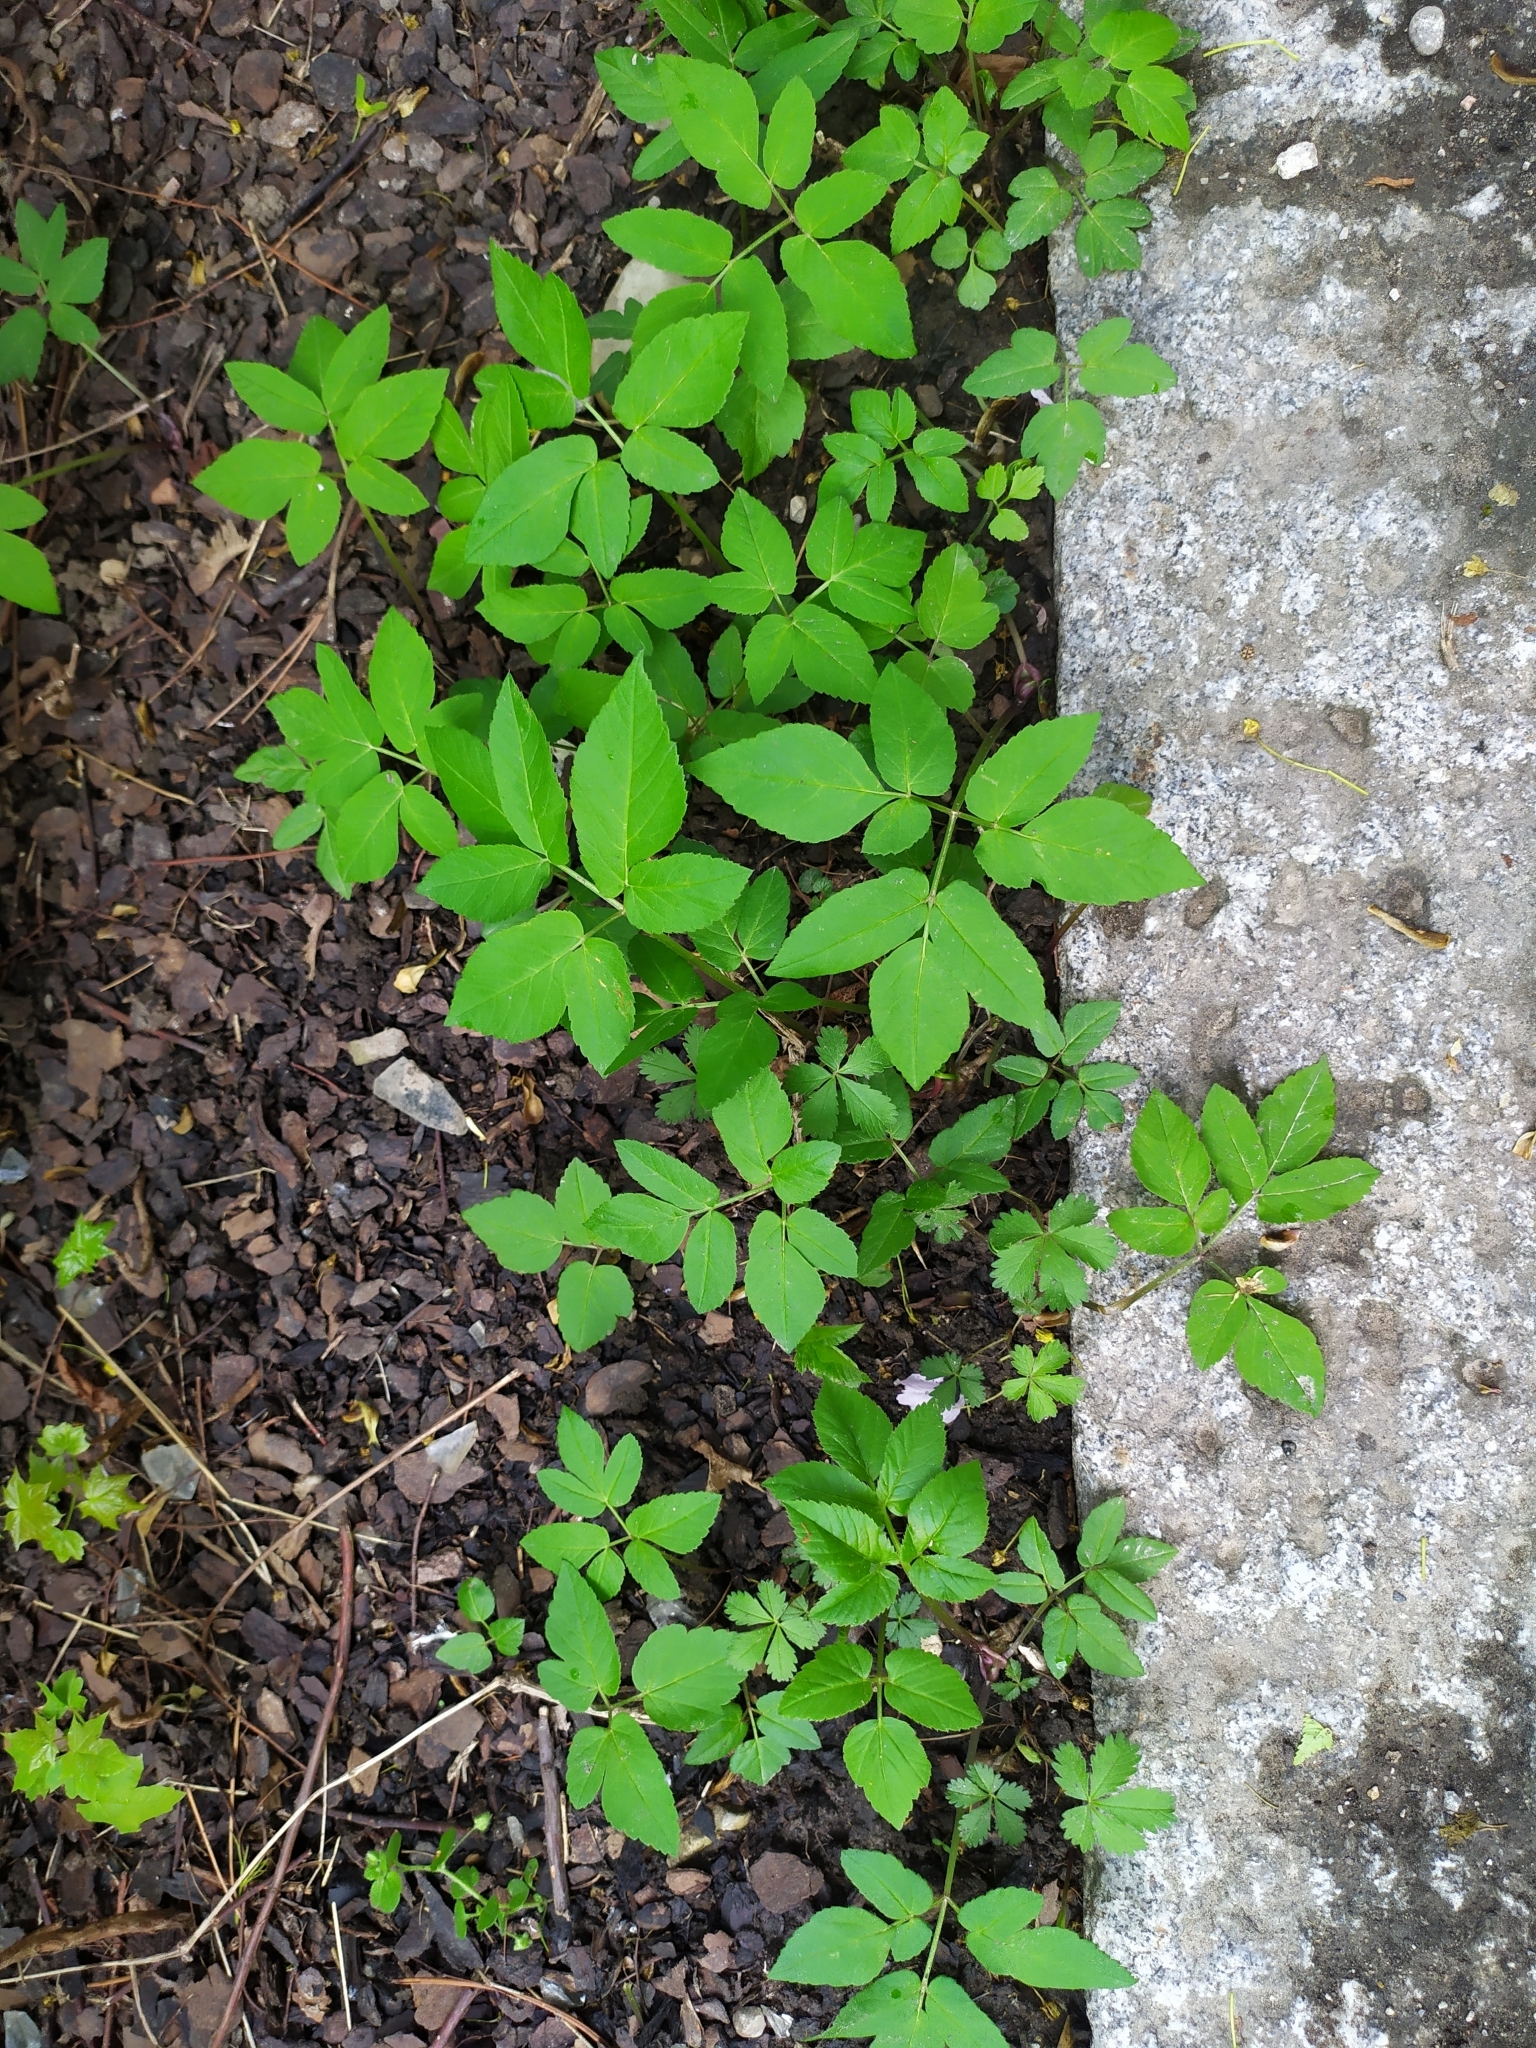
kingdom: Plantae
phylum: Tracheophyta
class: Magnoliopsida
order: Apiales
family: Apiaceae
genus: Aegopodium
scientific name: Aegopodium podagraria
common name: Ground-elder
